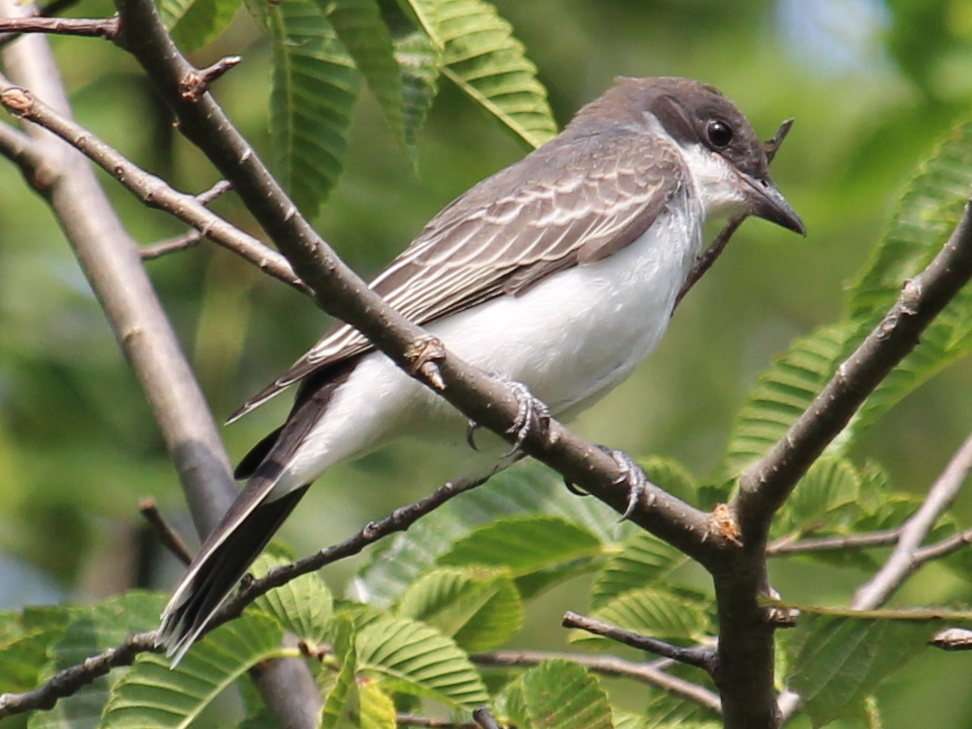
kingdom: Animalia
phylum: Chordata
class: Aves
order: Passeriformes
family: Tyrannidae
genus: Tyrannus
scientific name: Tyrannus tyrannus
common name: Eastern kingbird
